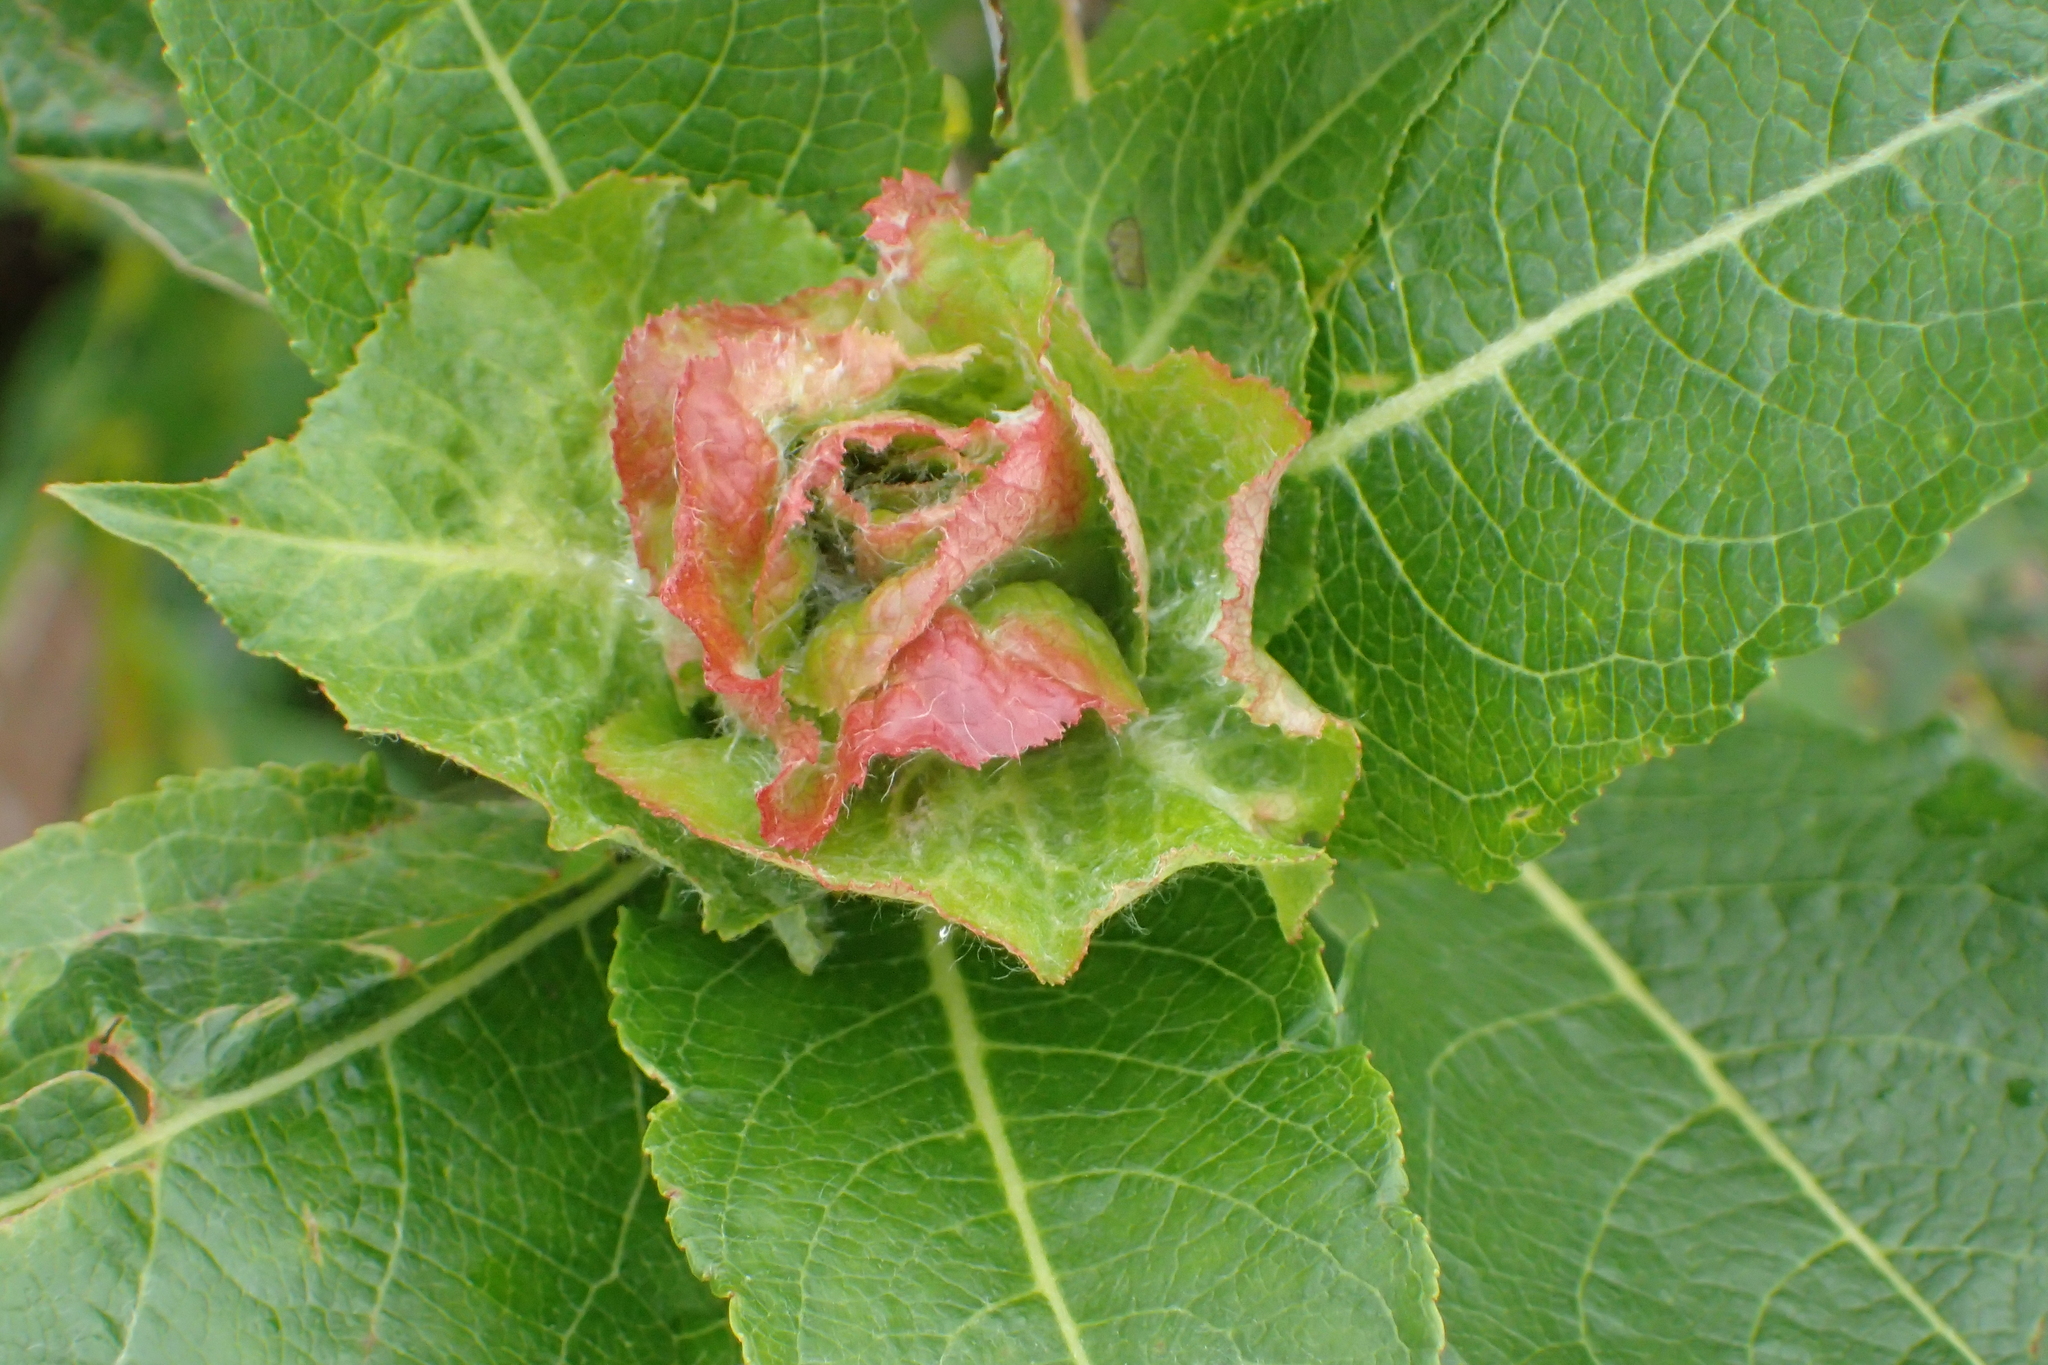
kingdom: Animalia
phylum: Arthropoda
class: Insecta
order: Diptera
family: Cecidomyiidae
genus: Rabdophaga
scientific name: Rabdophaga rosaria
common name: Willow rose gall midge
